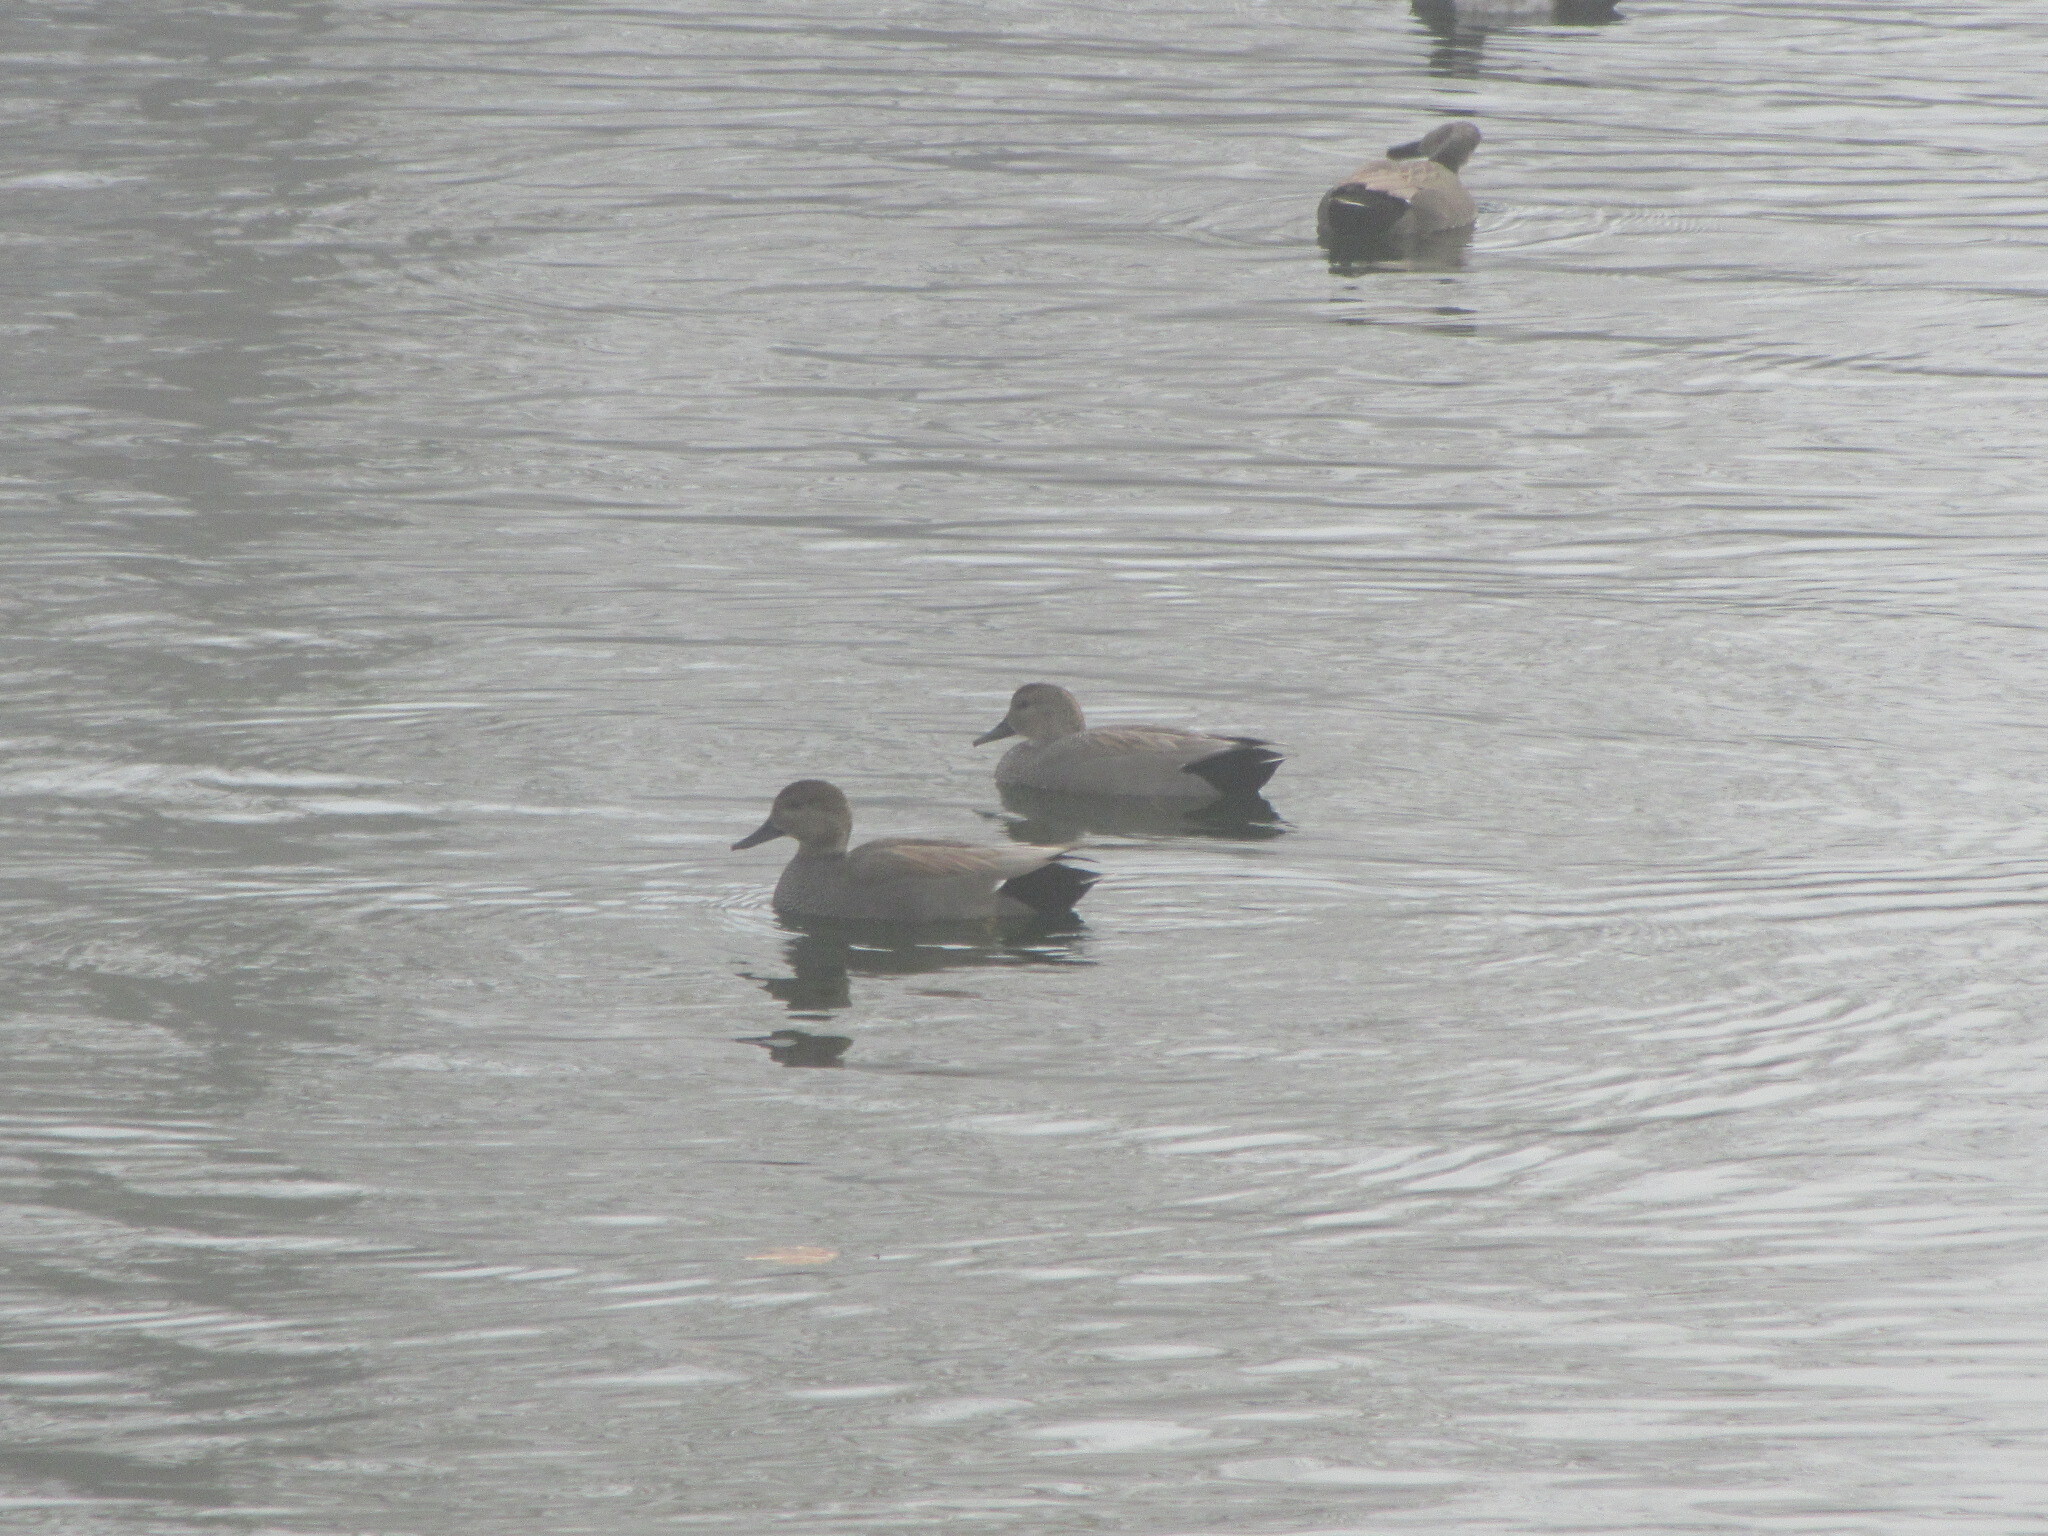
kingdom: Animalia
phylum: Chordata
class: Aves
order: Anseriformes
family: Anatidae
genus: Mareca
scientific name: Mareca strepera
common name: Gadwall
